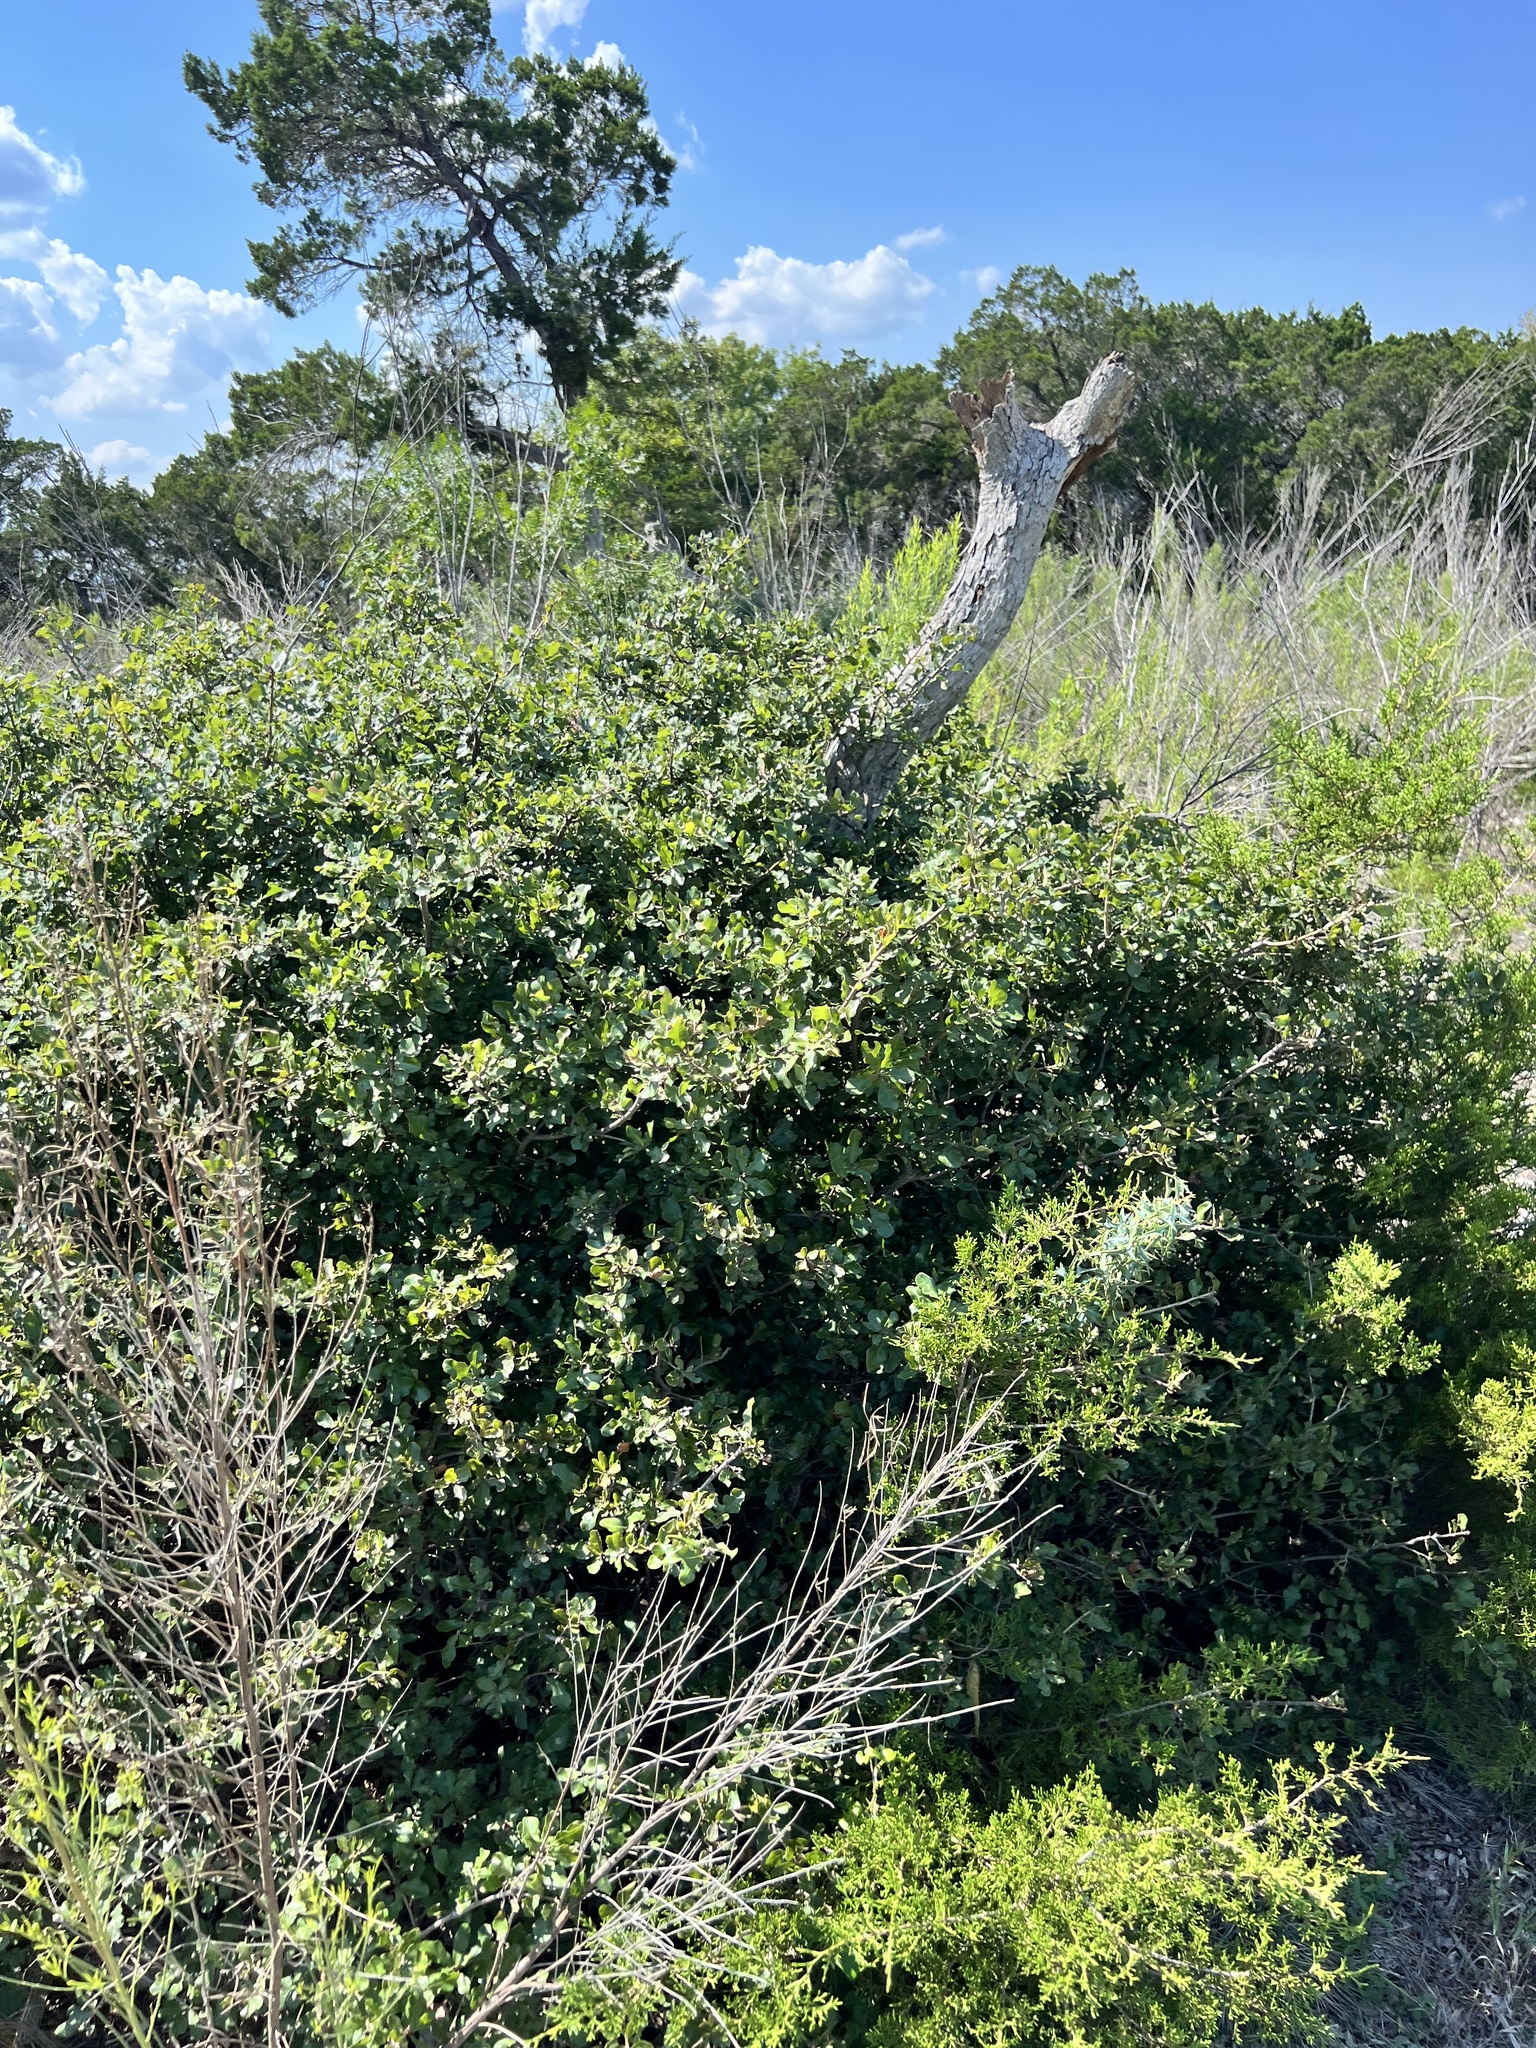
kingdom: Plantae
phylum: Tracheophyta
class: Magnoliopsida
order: Fagales
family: Fagaceae
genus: Quercus
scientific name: Quercus sinuata
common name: Durand oak
